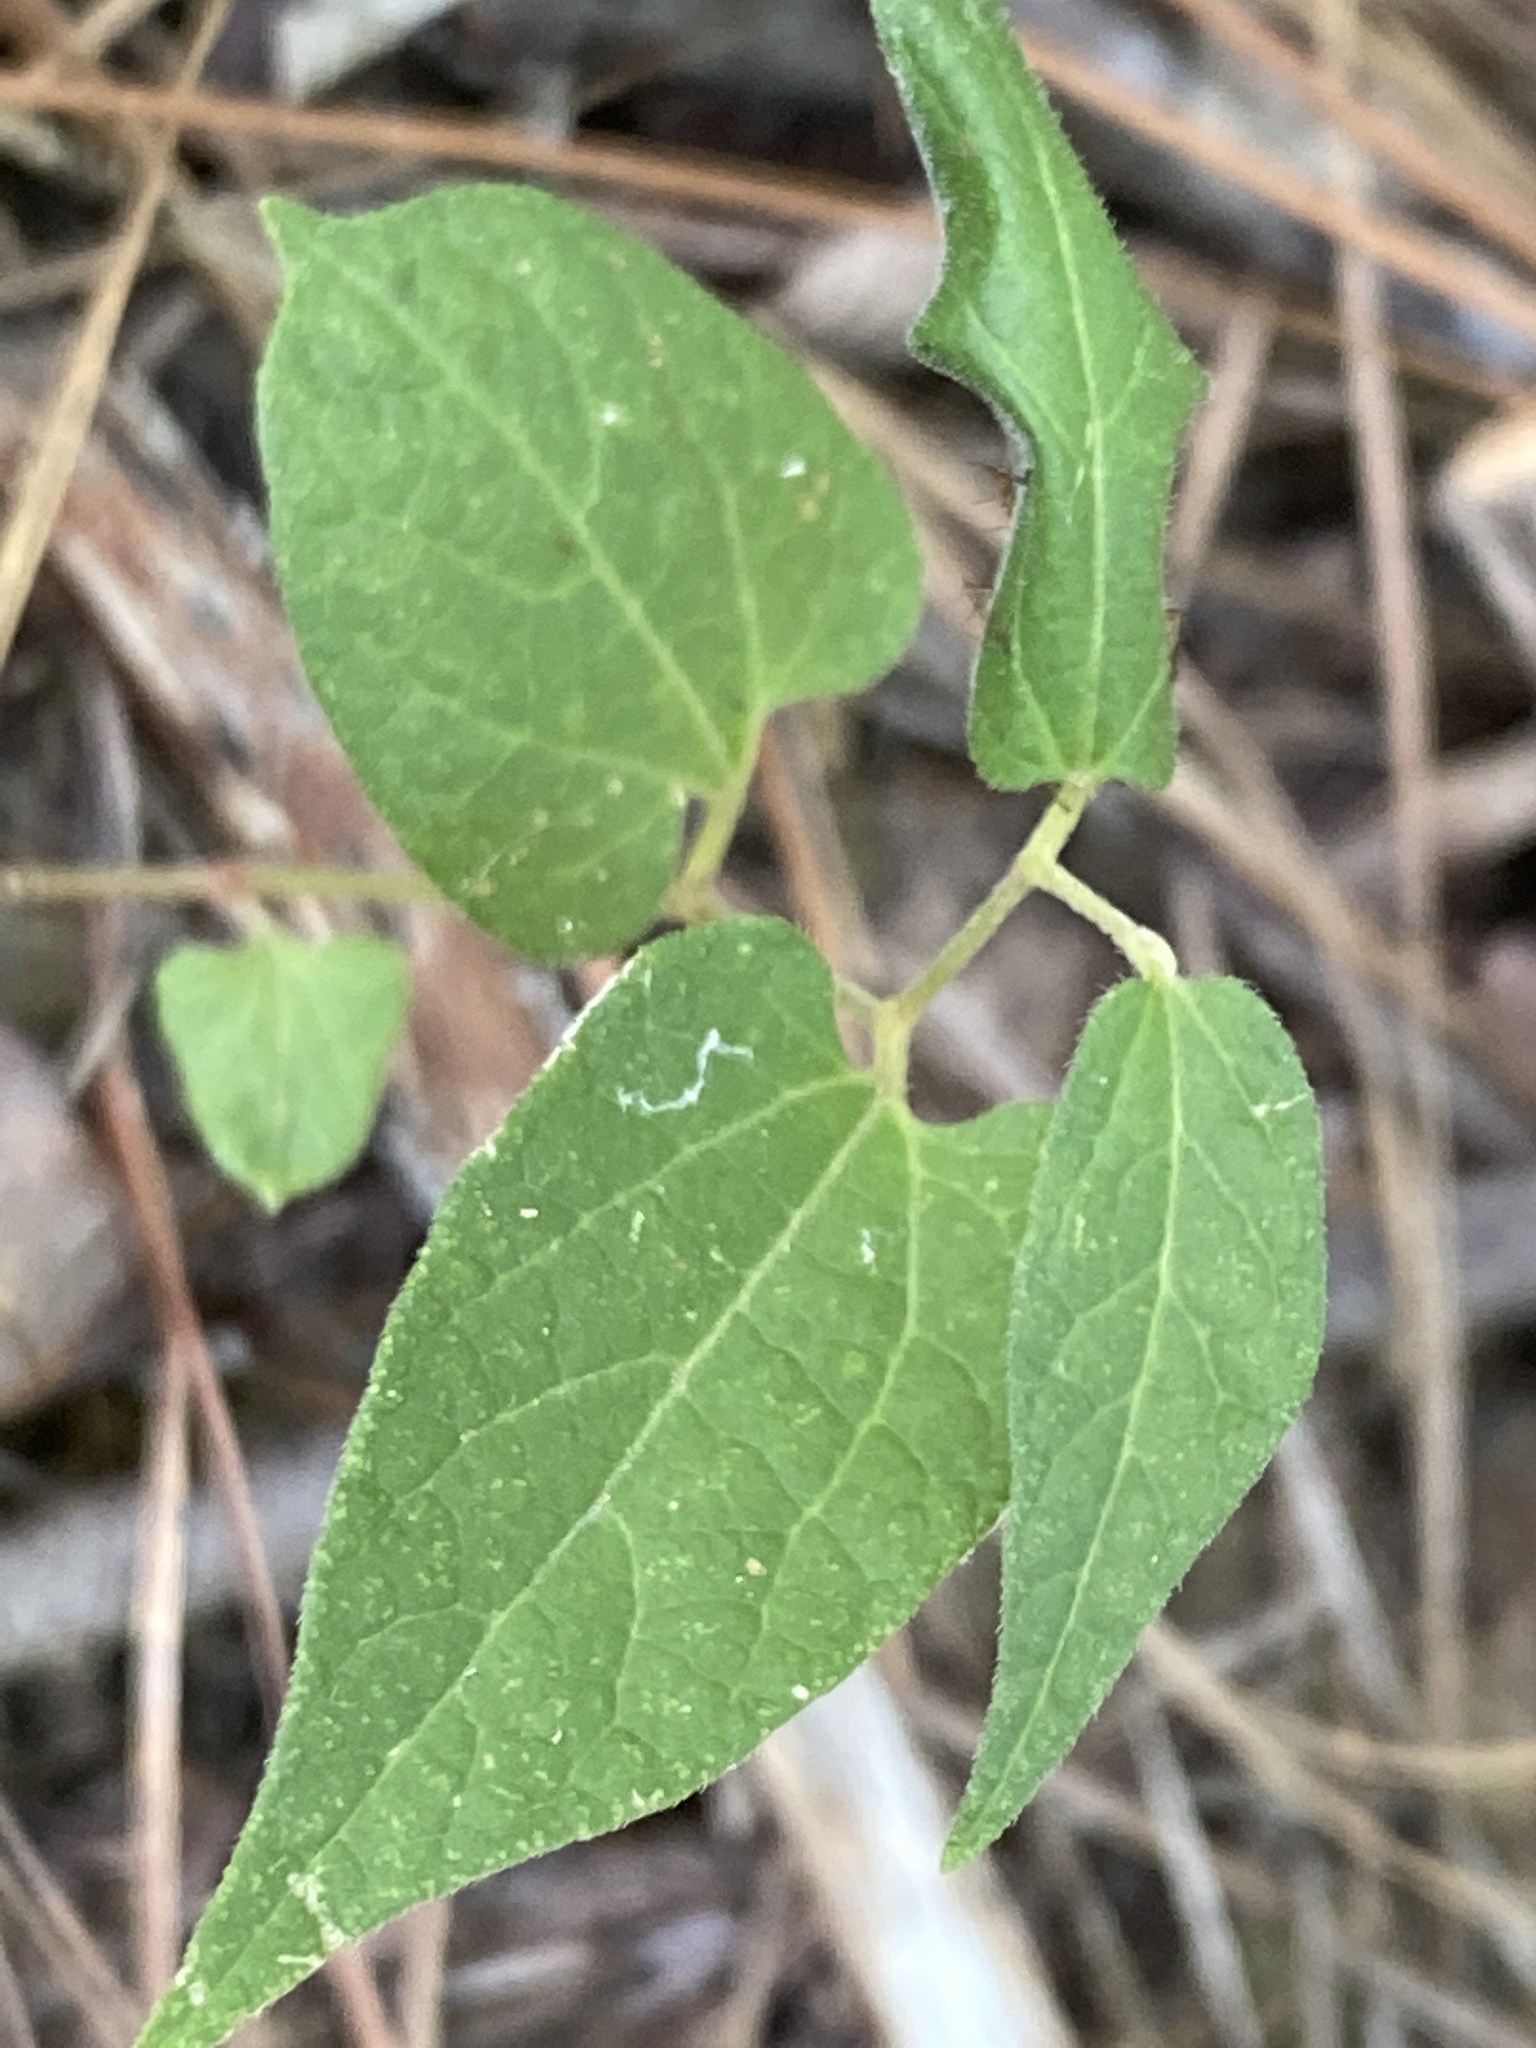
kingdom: Plantae
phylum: Tracheophyta
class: Magnoliopsida
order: Piperales
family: Aristolochiaceae
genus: Endodeca
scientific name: Endodeca serpentaria
